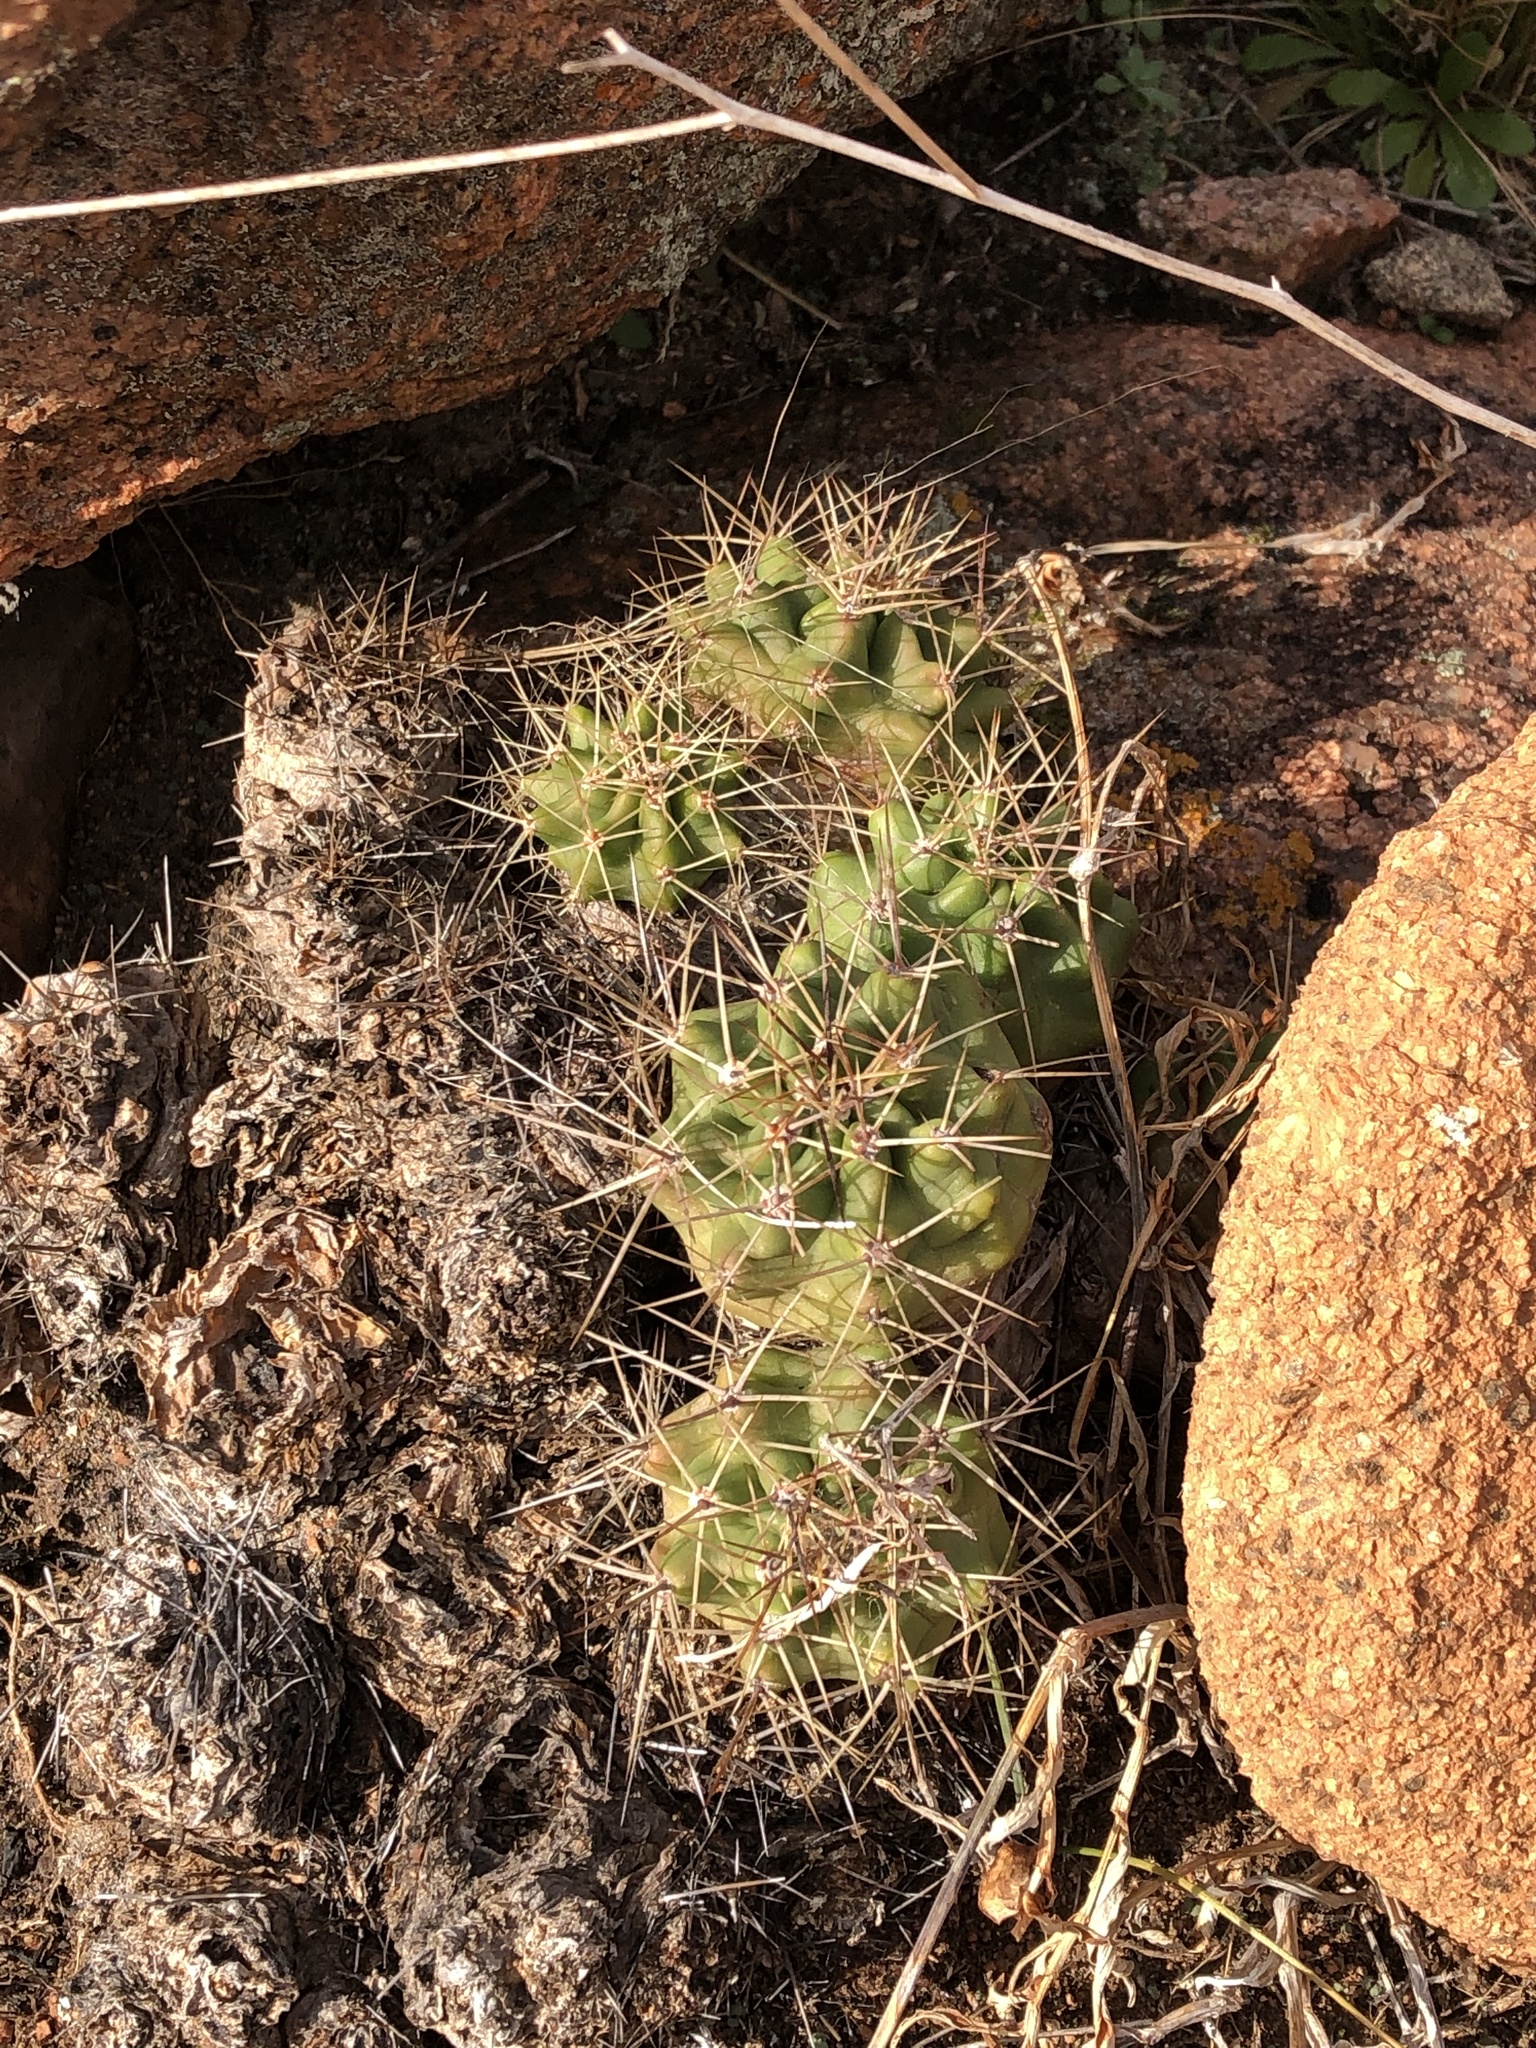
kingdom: Plantae
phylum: Tracheophyta
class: Magnoliopsida
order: Caryophyllales
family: Cactaceae
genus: Echinocereus
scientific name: Echinocereus coccineus
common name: Scarlet hedgehog cactus
